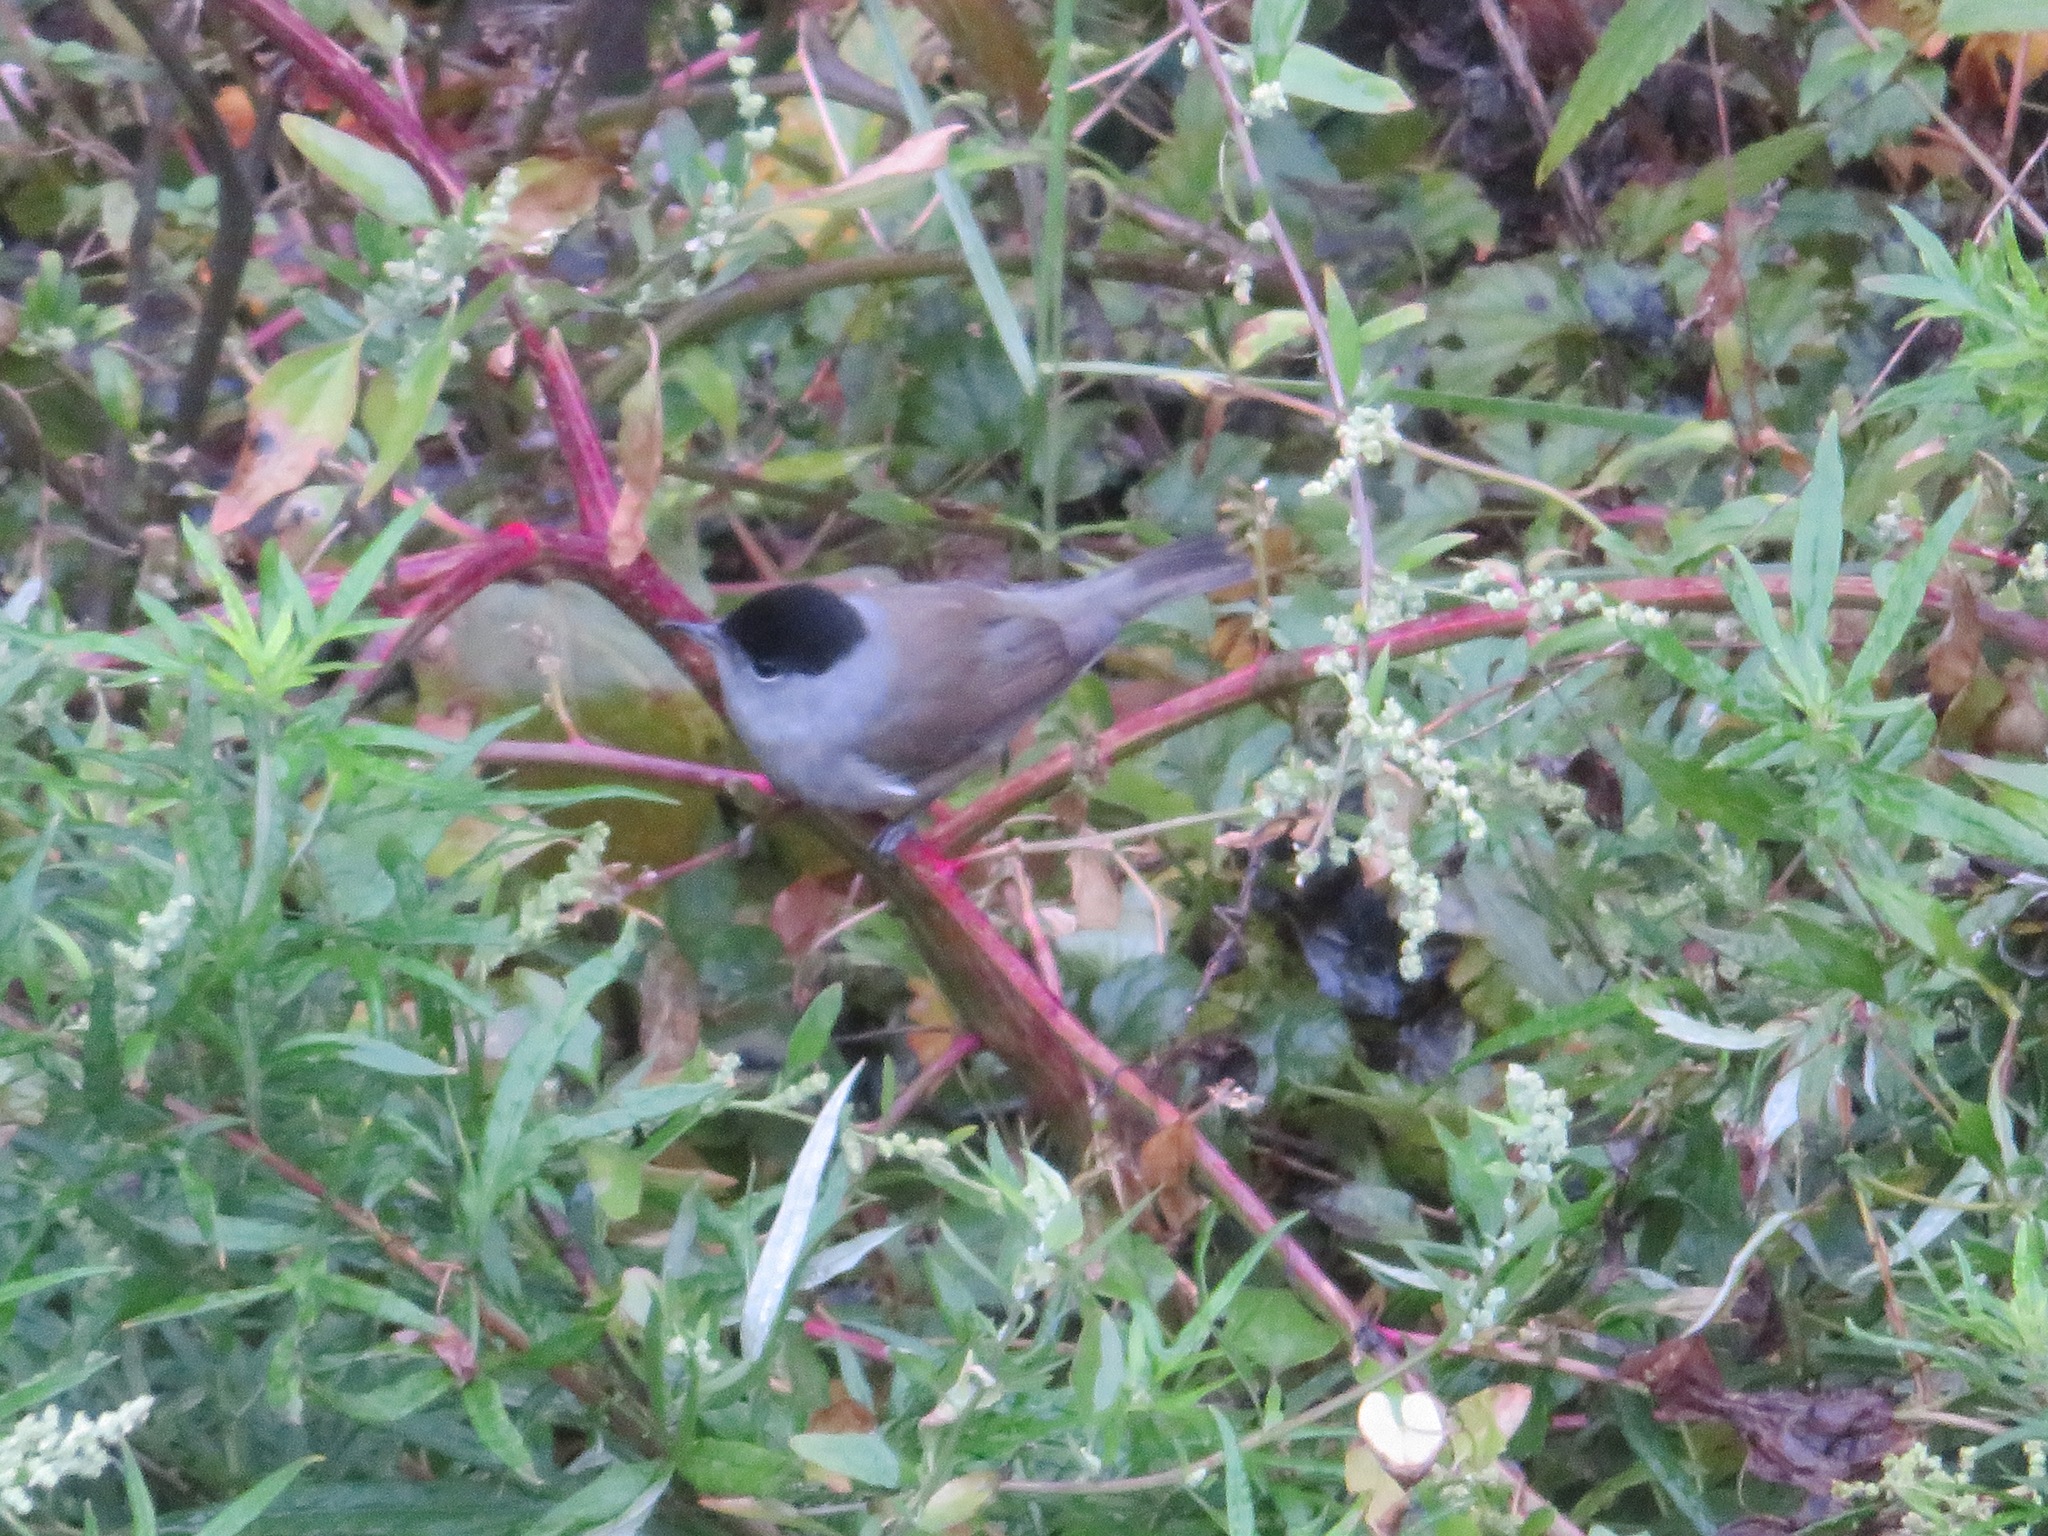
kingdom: Animalia
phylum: Chordata
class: Aves
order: Passeriformes
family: Sylviidae
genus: Sylvia
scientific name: Sylvia atricapilla
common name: Eurasian blackcap
